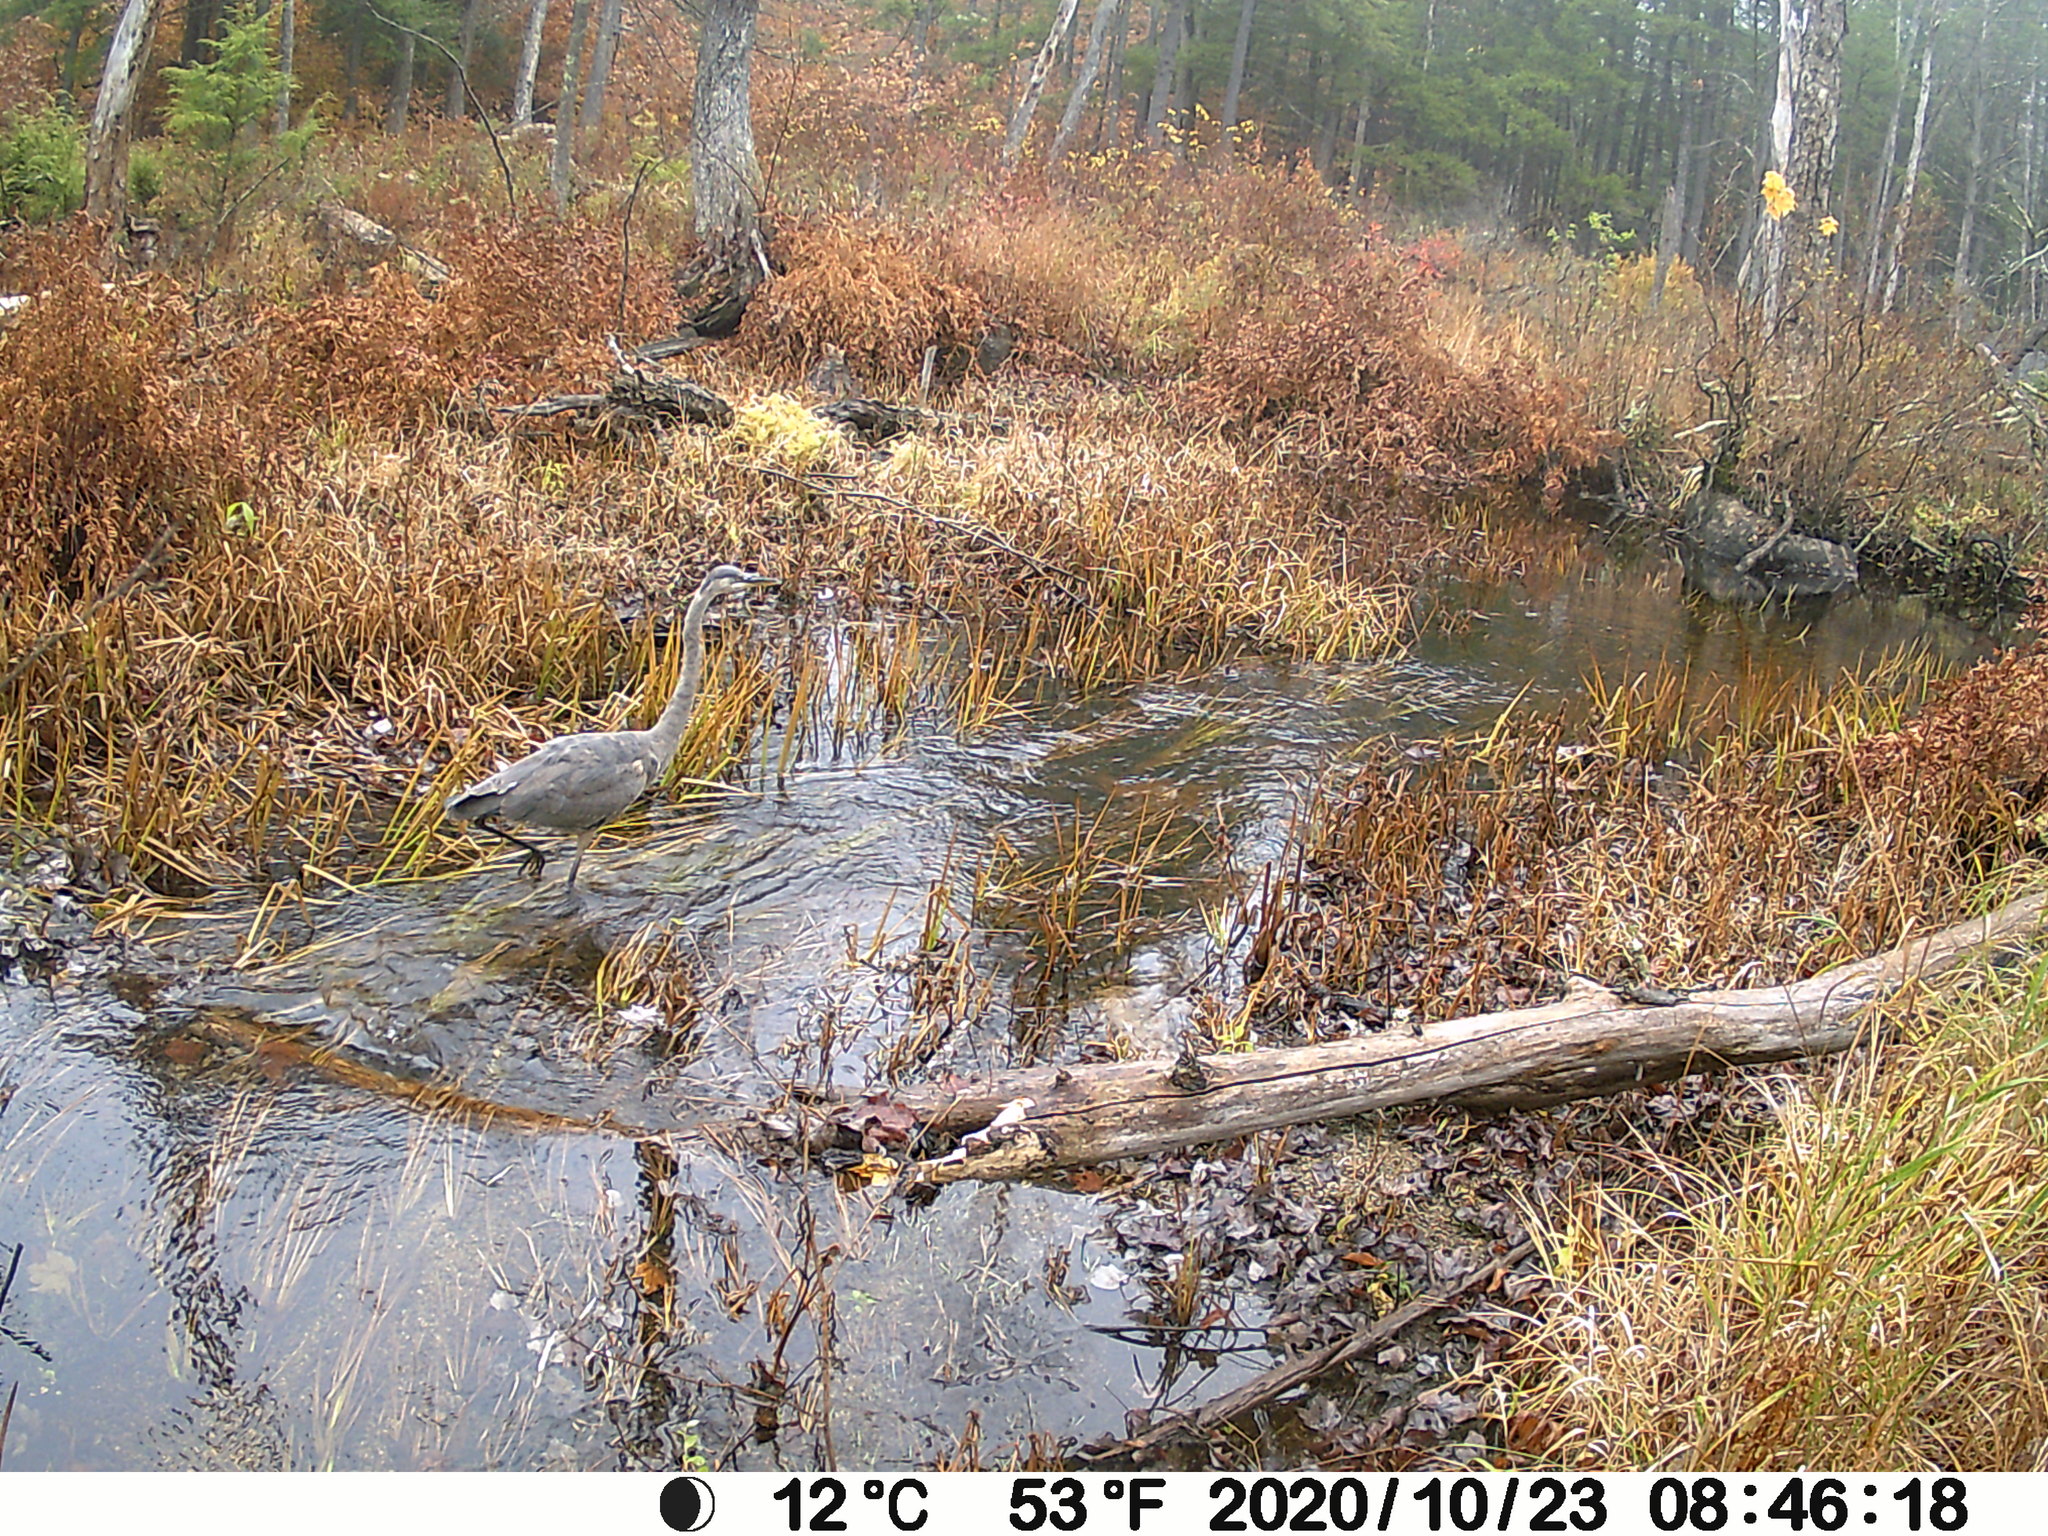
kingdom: Animalia
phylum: Chordata
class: Aves
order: Pelecaniformes
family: Ardeidae
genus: Ardea
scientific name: Ardea herodias
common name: Great blue heron
